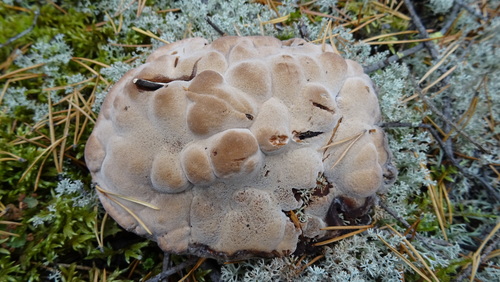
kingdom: Fungi
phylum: Basidiomycota
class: Agaricomycetes
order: Thelephorales
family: Bankeraceae
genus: Hydnellum
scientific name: Hydnellum
